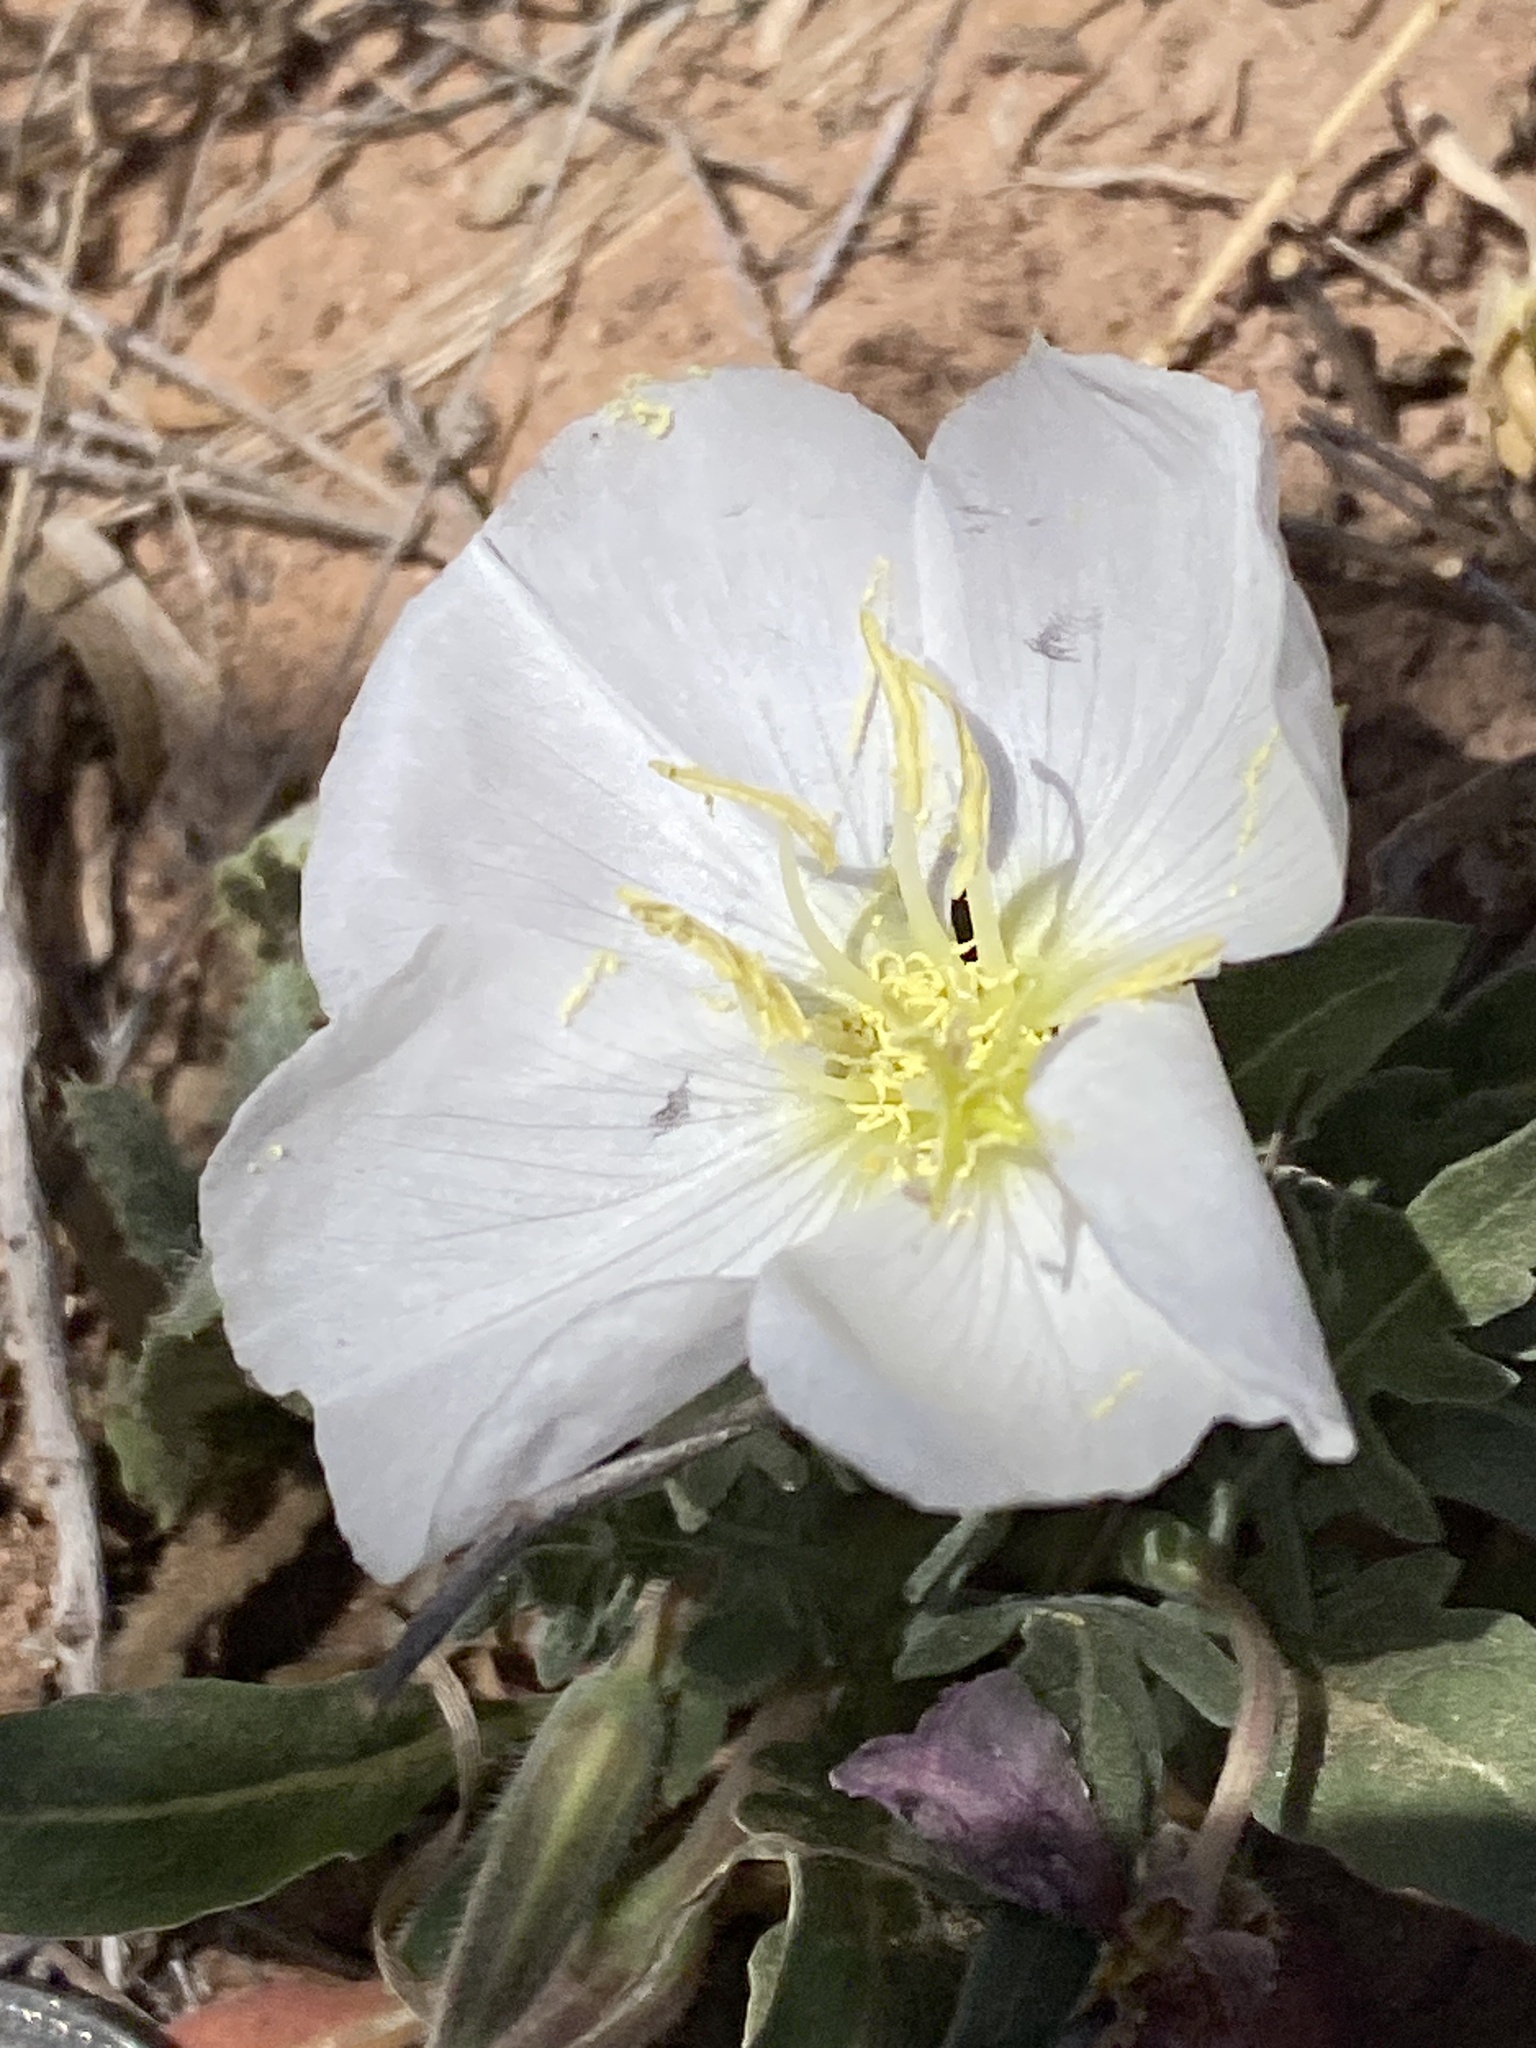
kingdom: Plantae
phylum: Tracheophyta
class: Magnoliopsida
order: Myrtales
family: Onagraceae
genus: Oenothera
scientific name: Oenothera albicaulis
